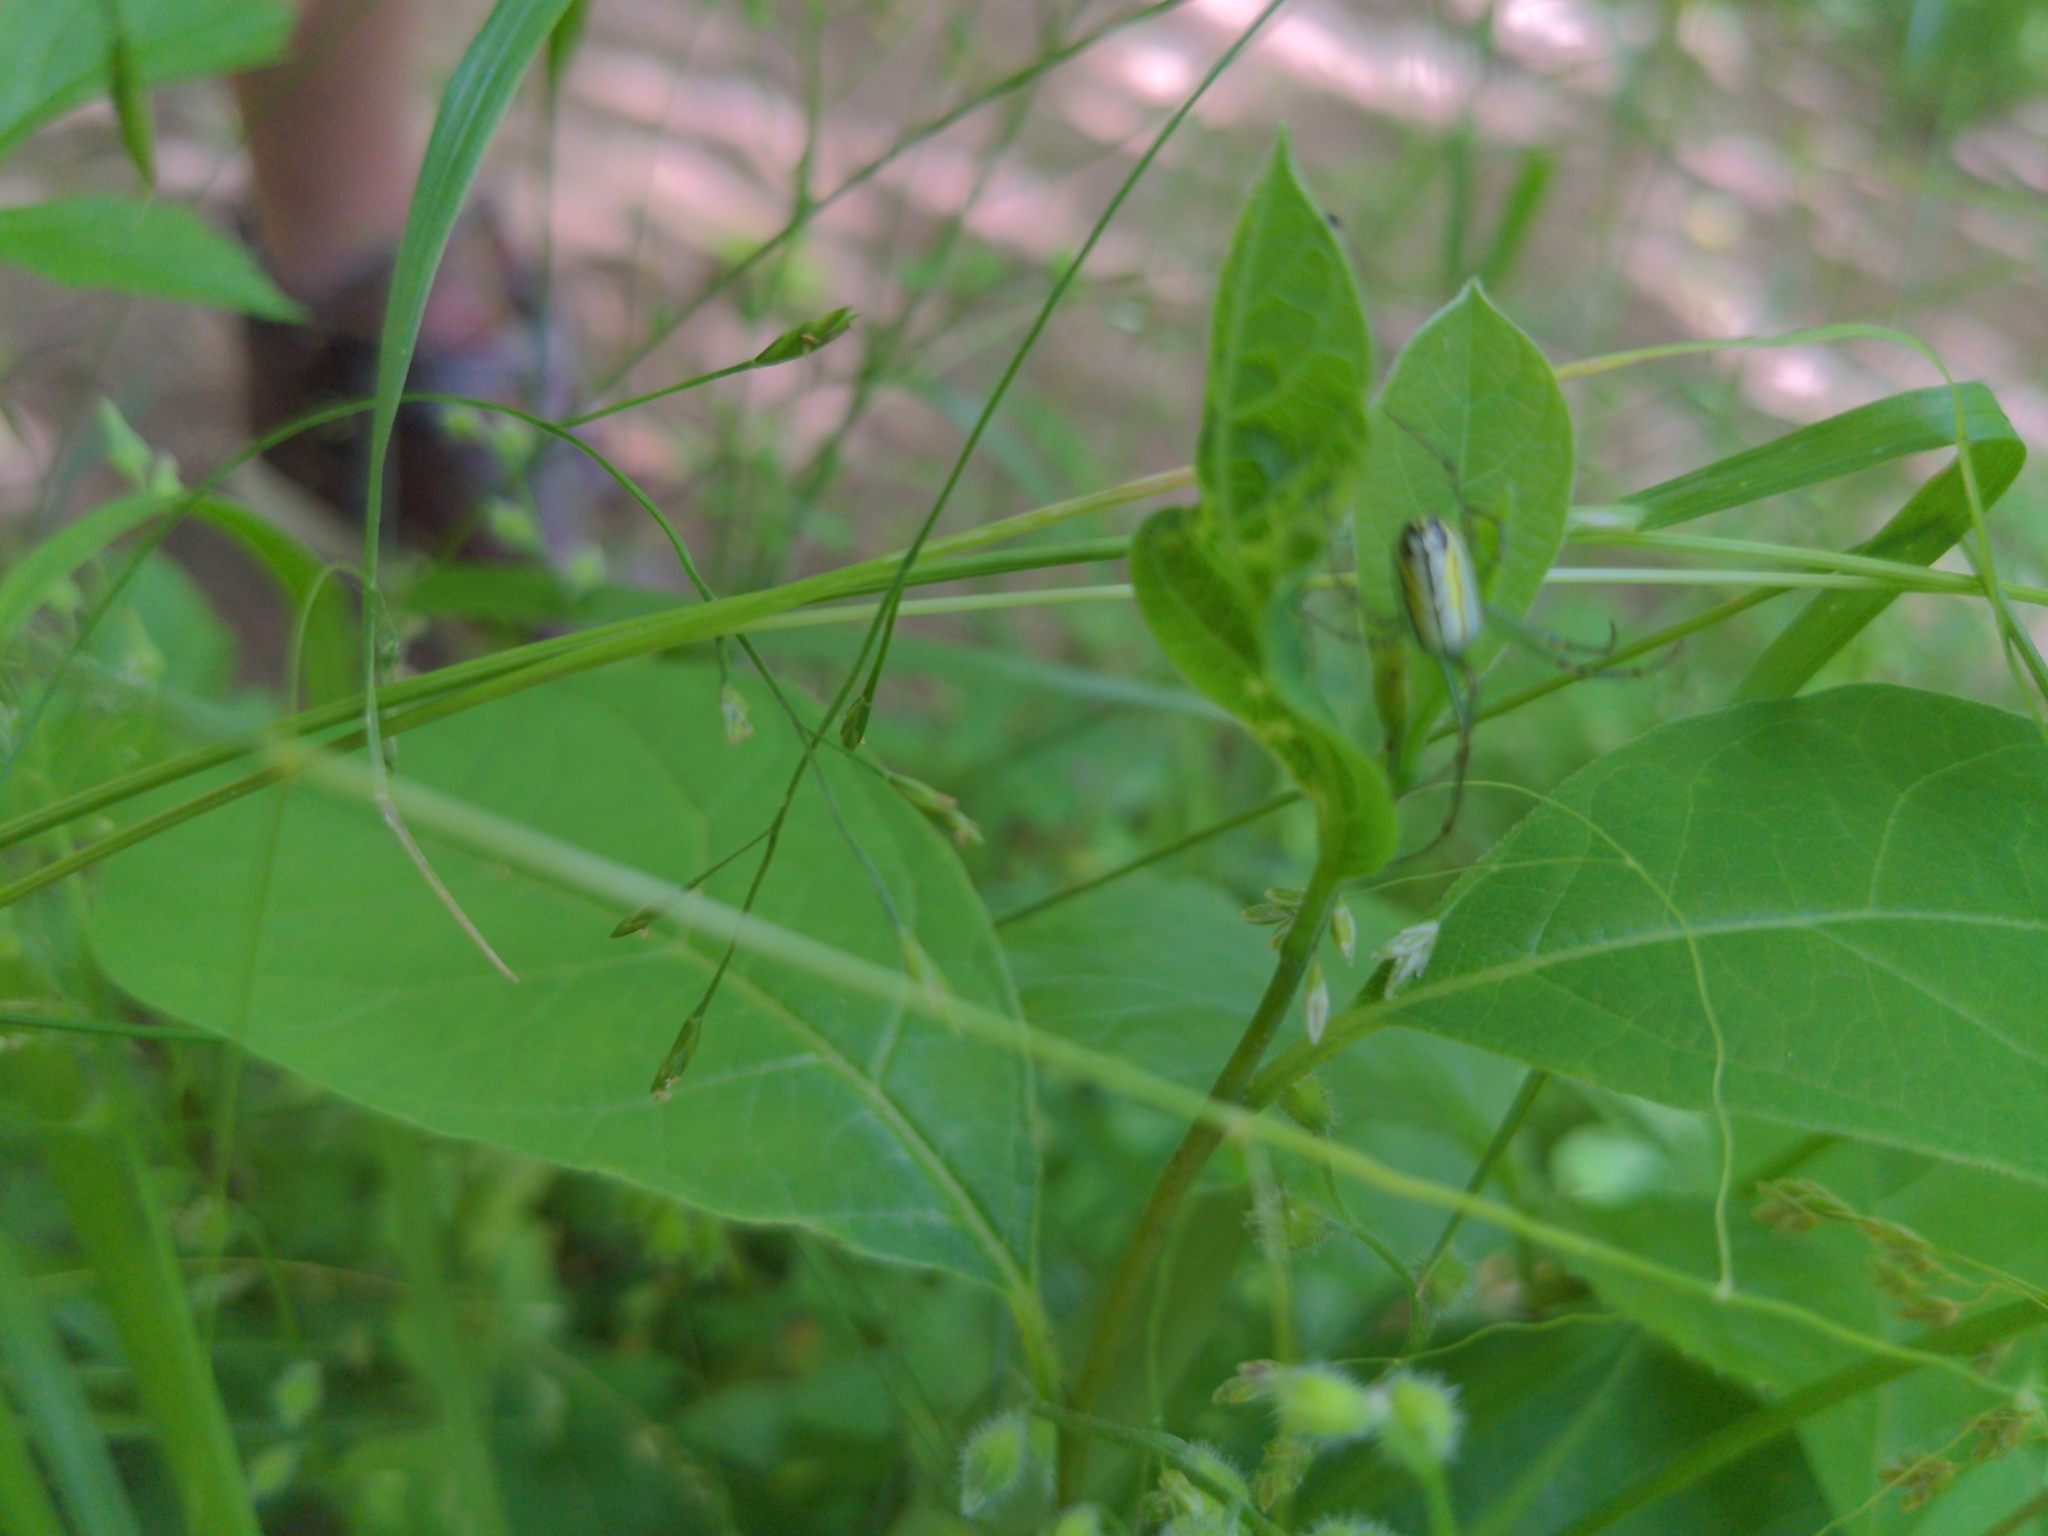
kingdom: Animalia
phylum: Arthropoda
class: Arachnida
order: Araneae
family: Tetragnathidae
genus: Leucauge
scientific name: Leucauge venusta
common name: Longjawed orb weavers
